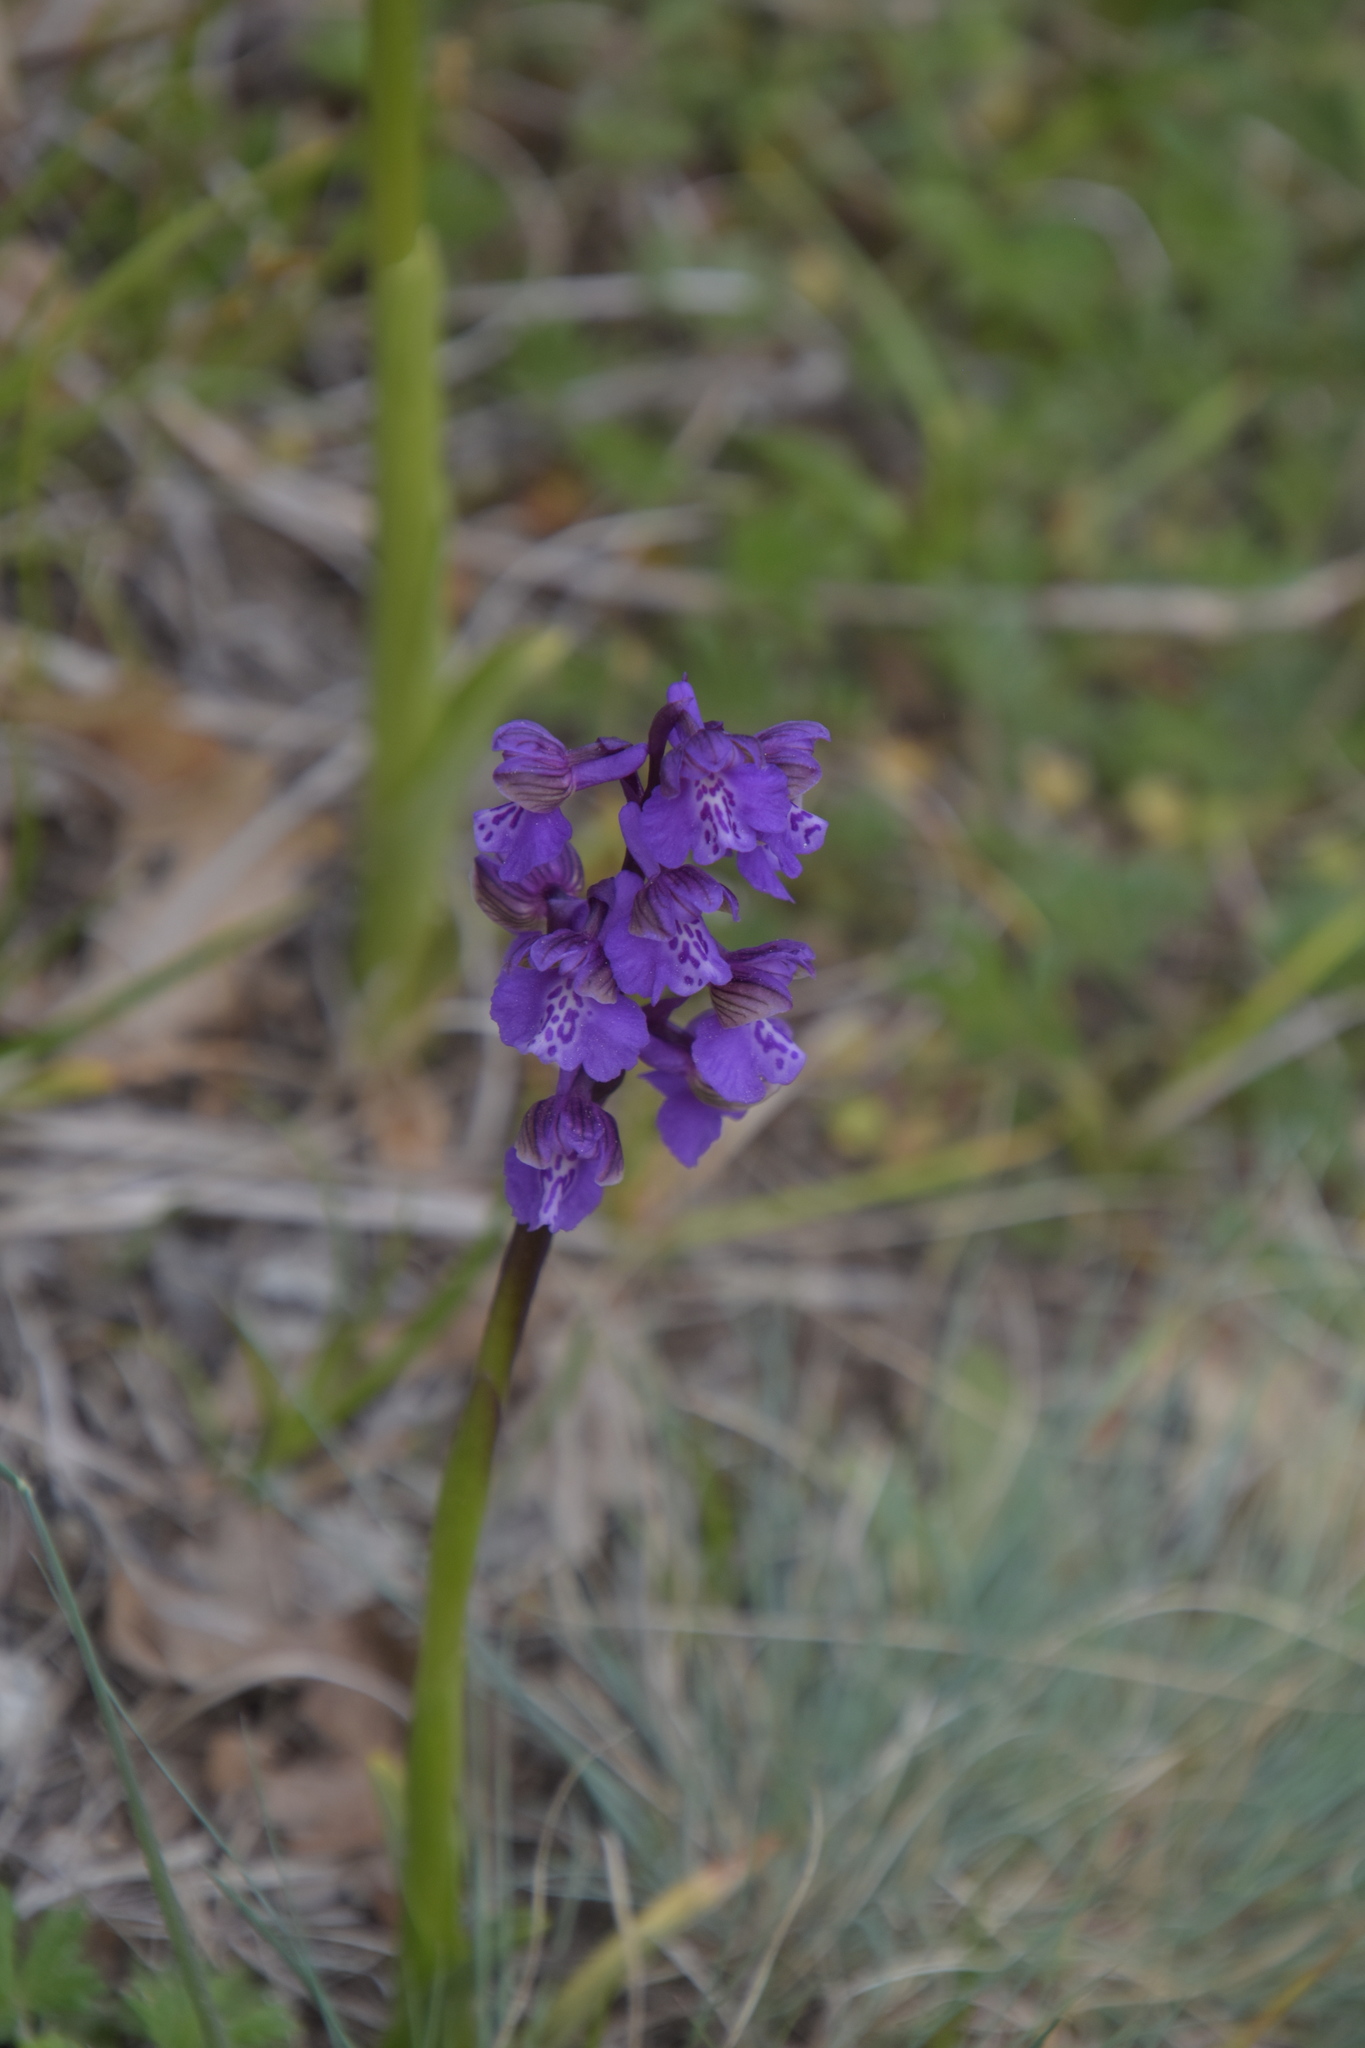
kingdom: Plantae
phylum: Tracheophyta
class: Liliopsida
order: Asparagales
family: Orchidaceae
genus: Anacamptis
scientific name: Anacamptis morio
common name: Green-winged orchid
